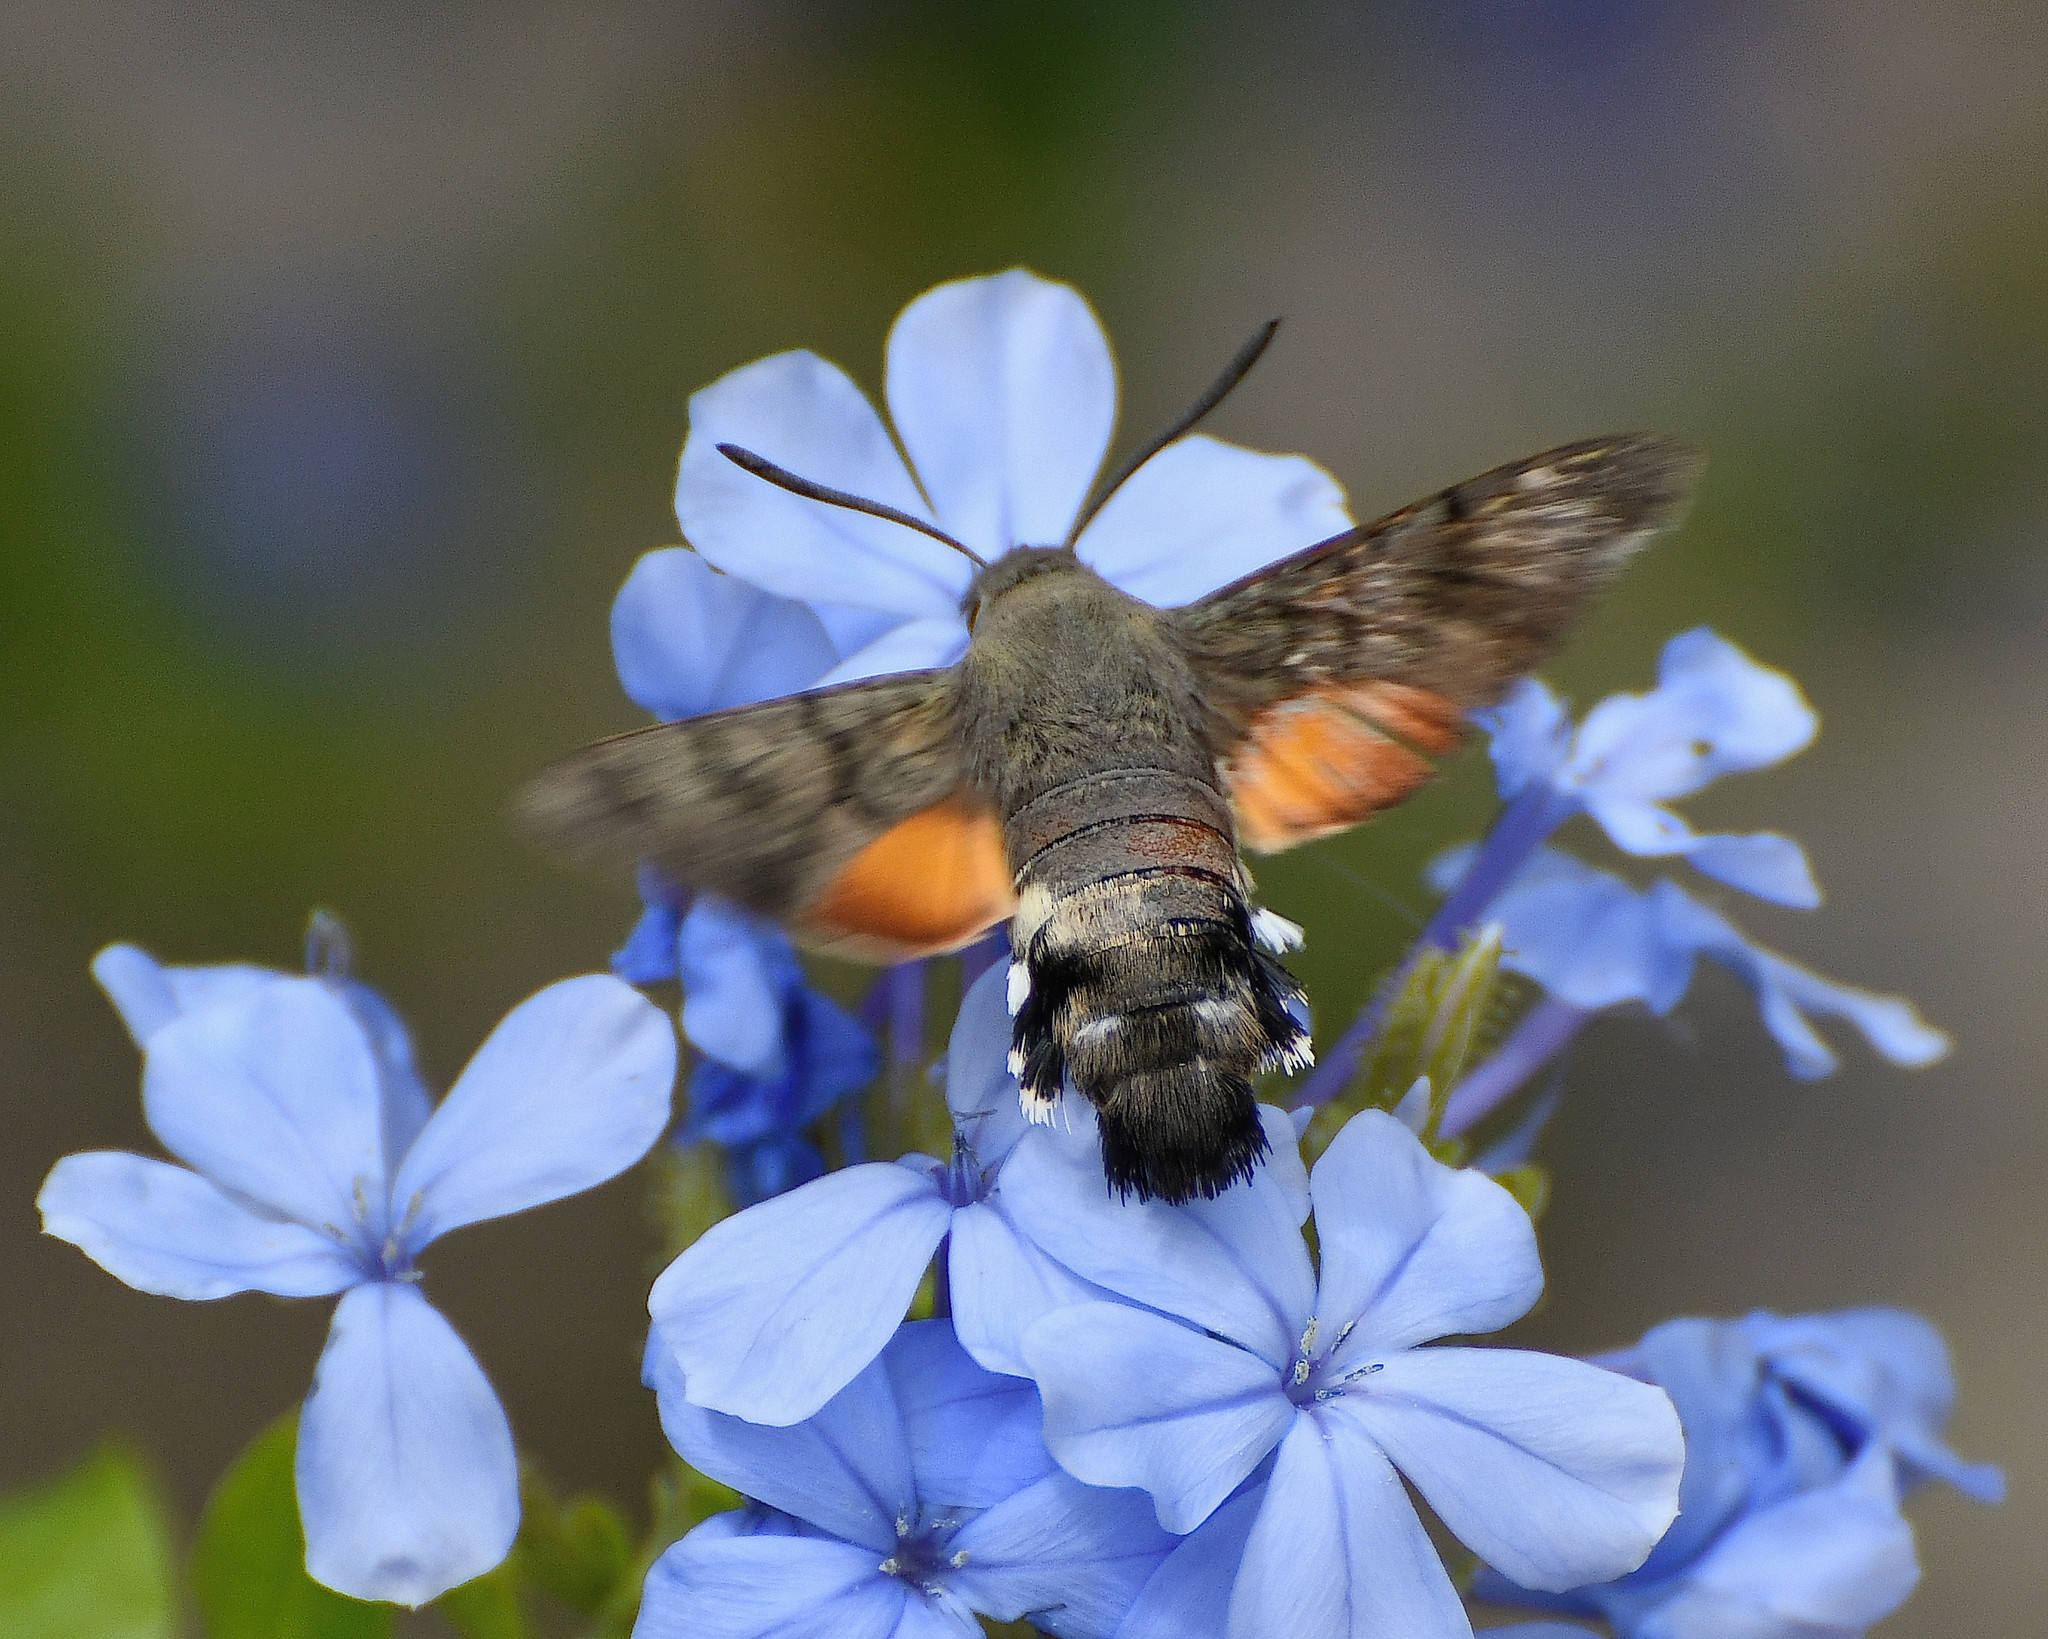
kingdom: Animalia
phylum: Arthropoda
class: Insecta
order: Lepidoptera
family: Sphingidae
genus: Macroglossum
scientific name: Macroglossum stellatarum
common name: Humming-bird hawk-moth
